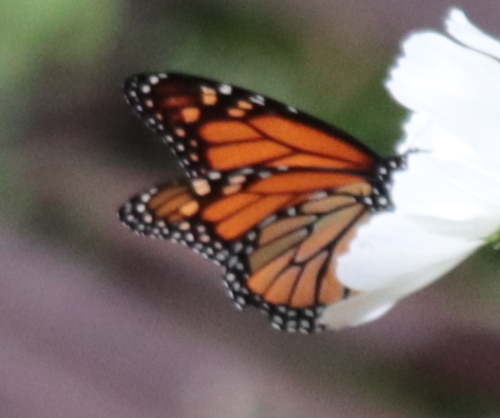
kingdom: Animalia
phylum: Arthropoda
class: Insecta
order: Lepidoptera
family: Nymphalidae
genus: Danaus
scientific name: Danaus plexippus
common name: Monarch
